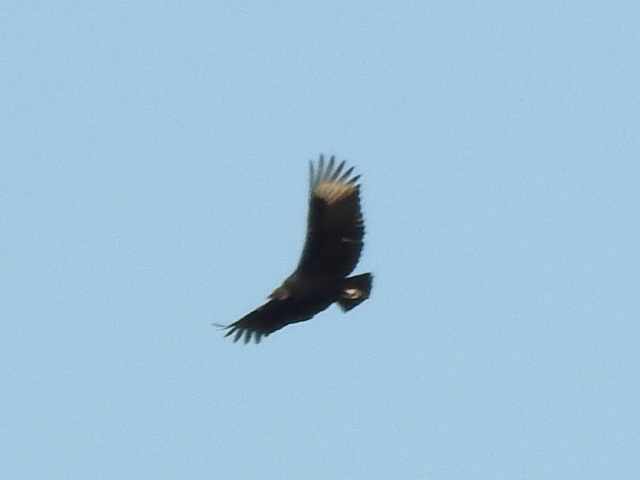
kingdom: Animalia
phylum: Chordata
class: Aves
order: Accipitriformes
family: Cathartidae
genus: Coragyps
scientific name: Coragyps atratus
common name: Black vulture
